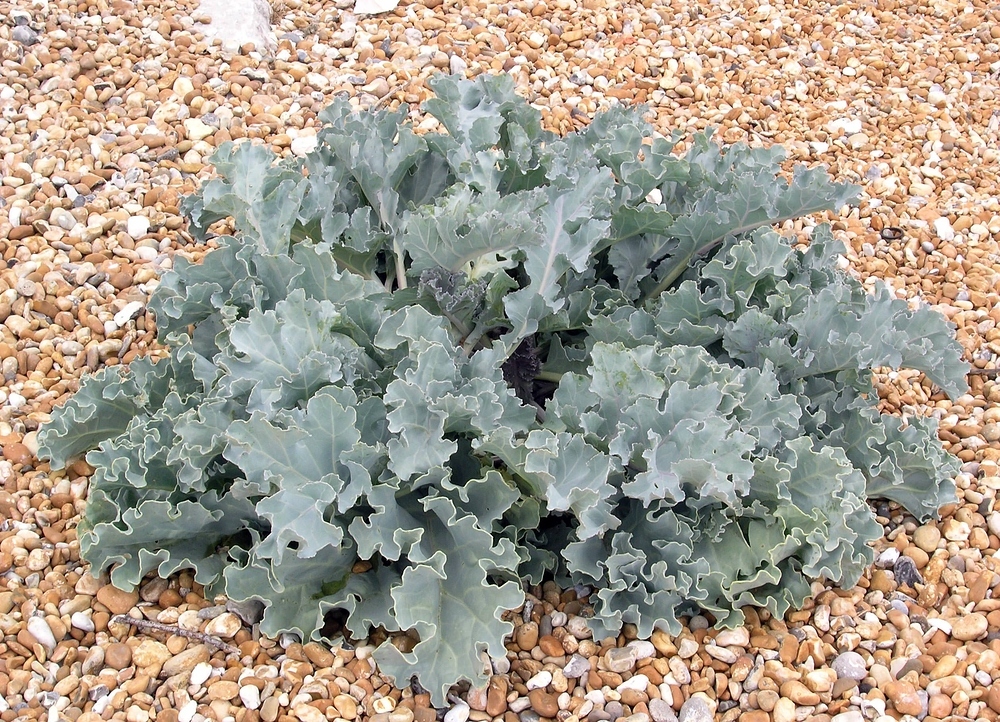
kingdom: Plantae
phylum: Tracheophyta
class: Magnoliopsida
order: Brassicales
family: Brassicaceae
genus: Crambe
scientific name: Crambe maritima
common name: Sea-kale
